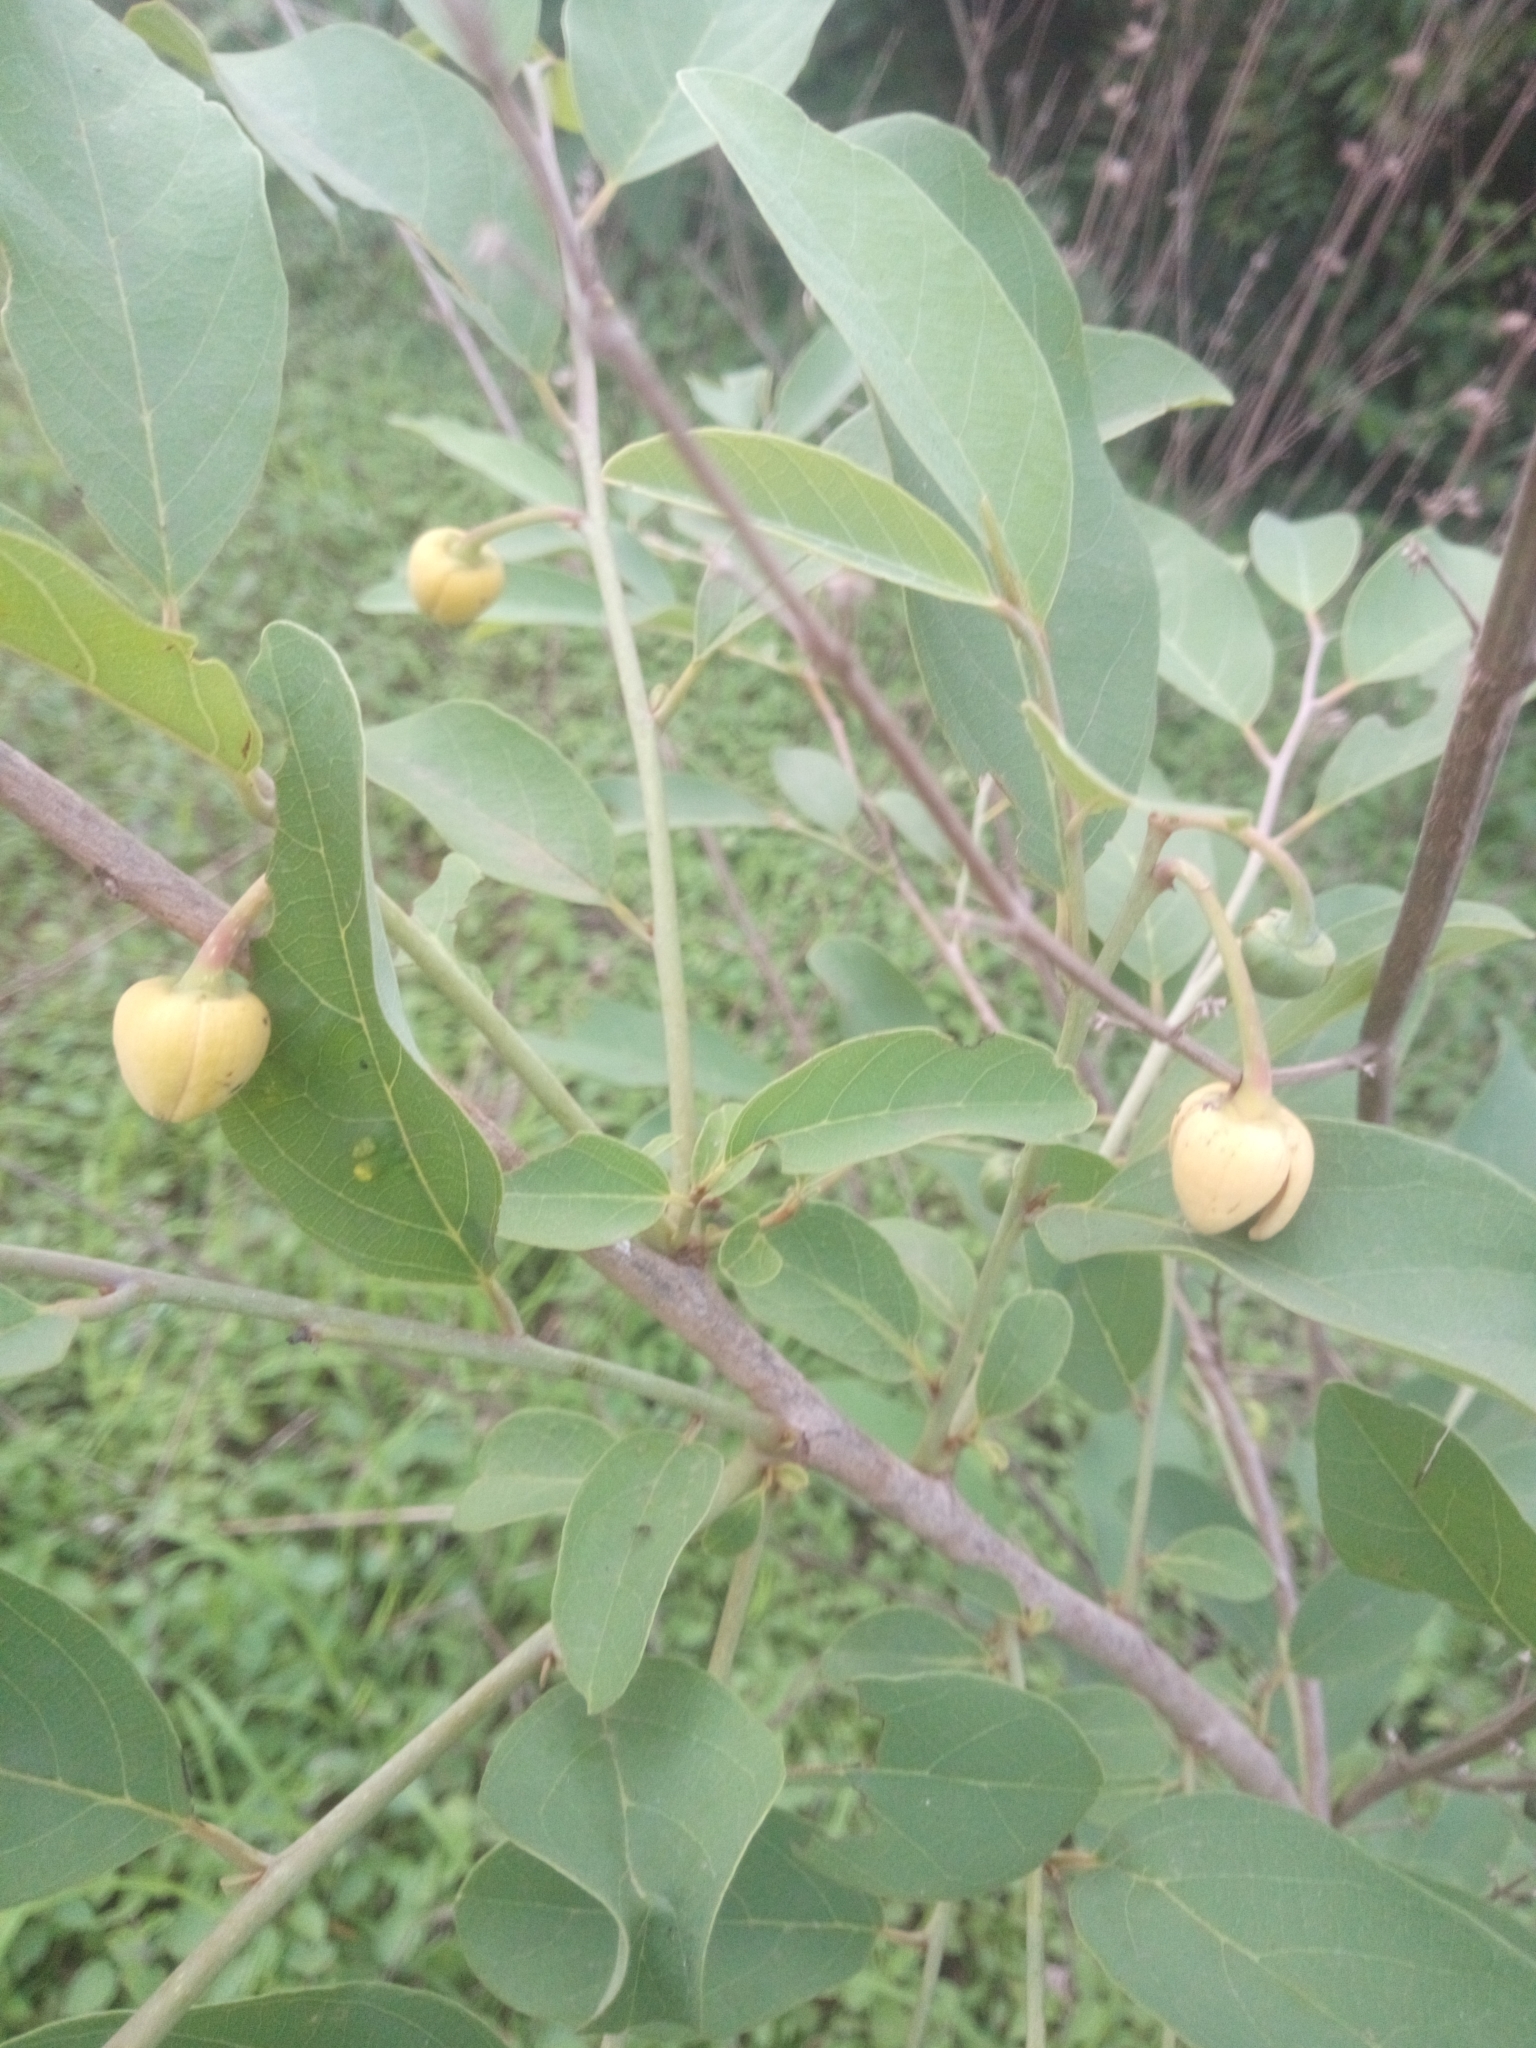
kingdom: Plantae
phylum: Tracheophyta
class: Magnoliopsida
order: Magnoliales
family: Annonaceae
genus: Annona
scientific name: Annona senegalensis
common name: Wild custard-apple
